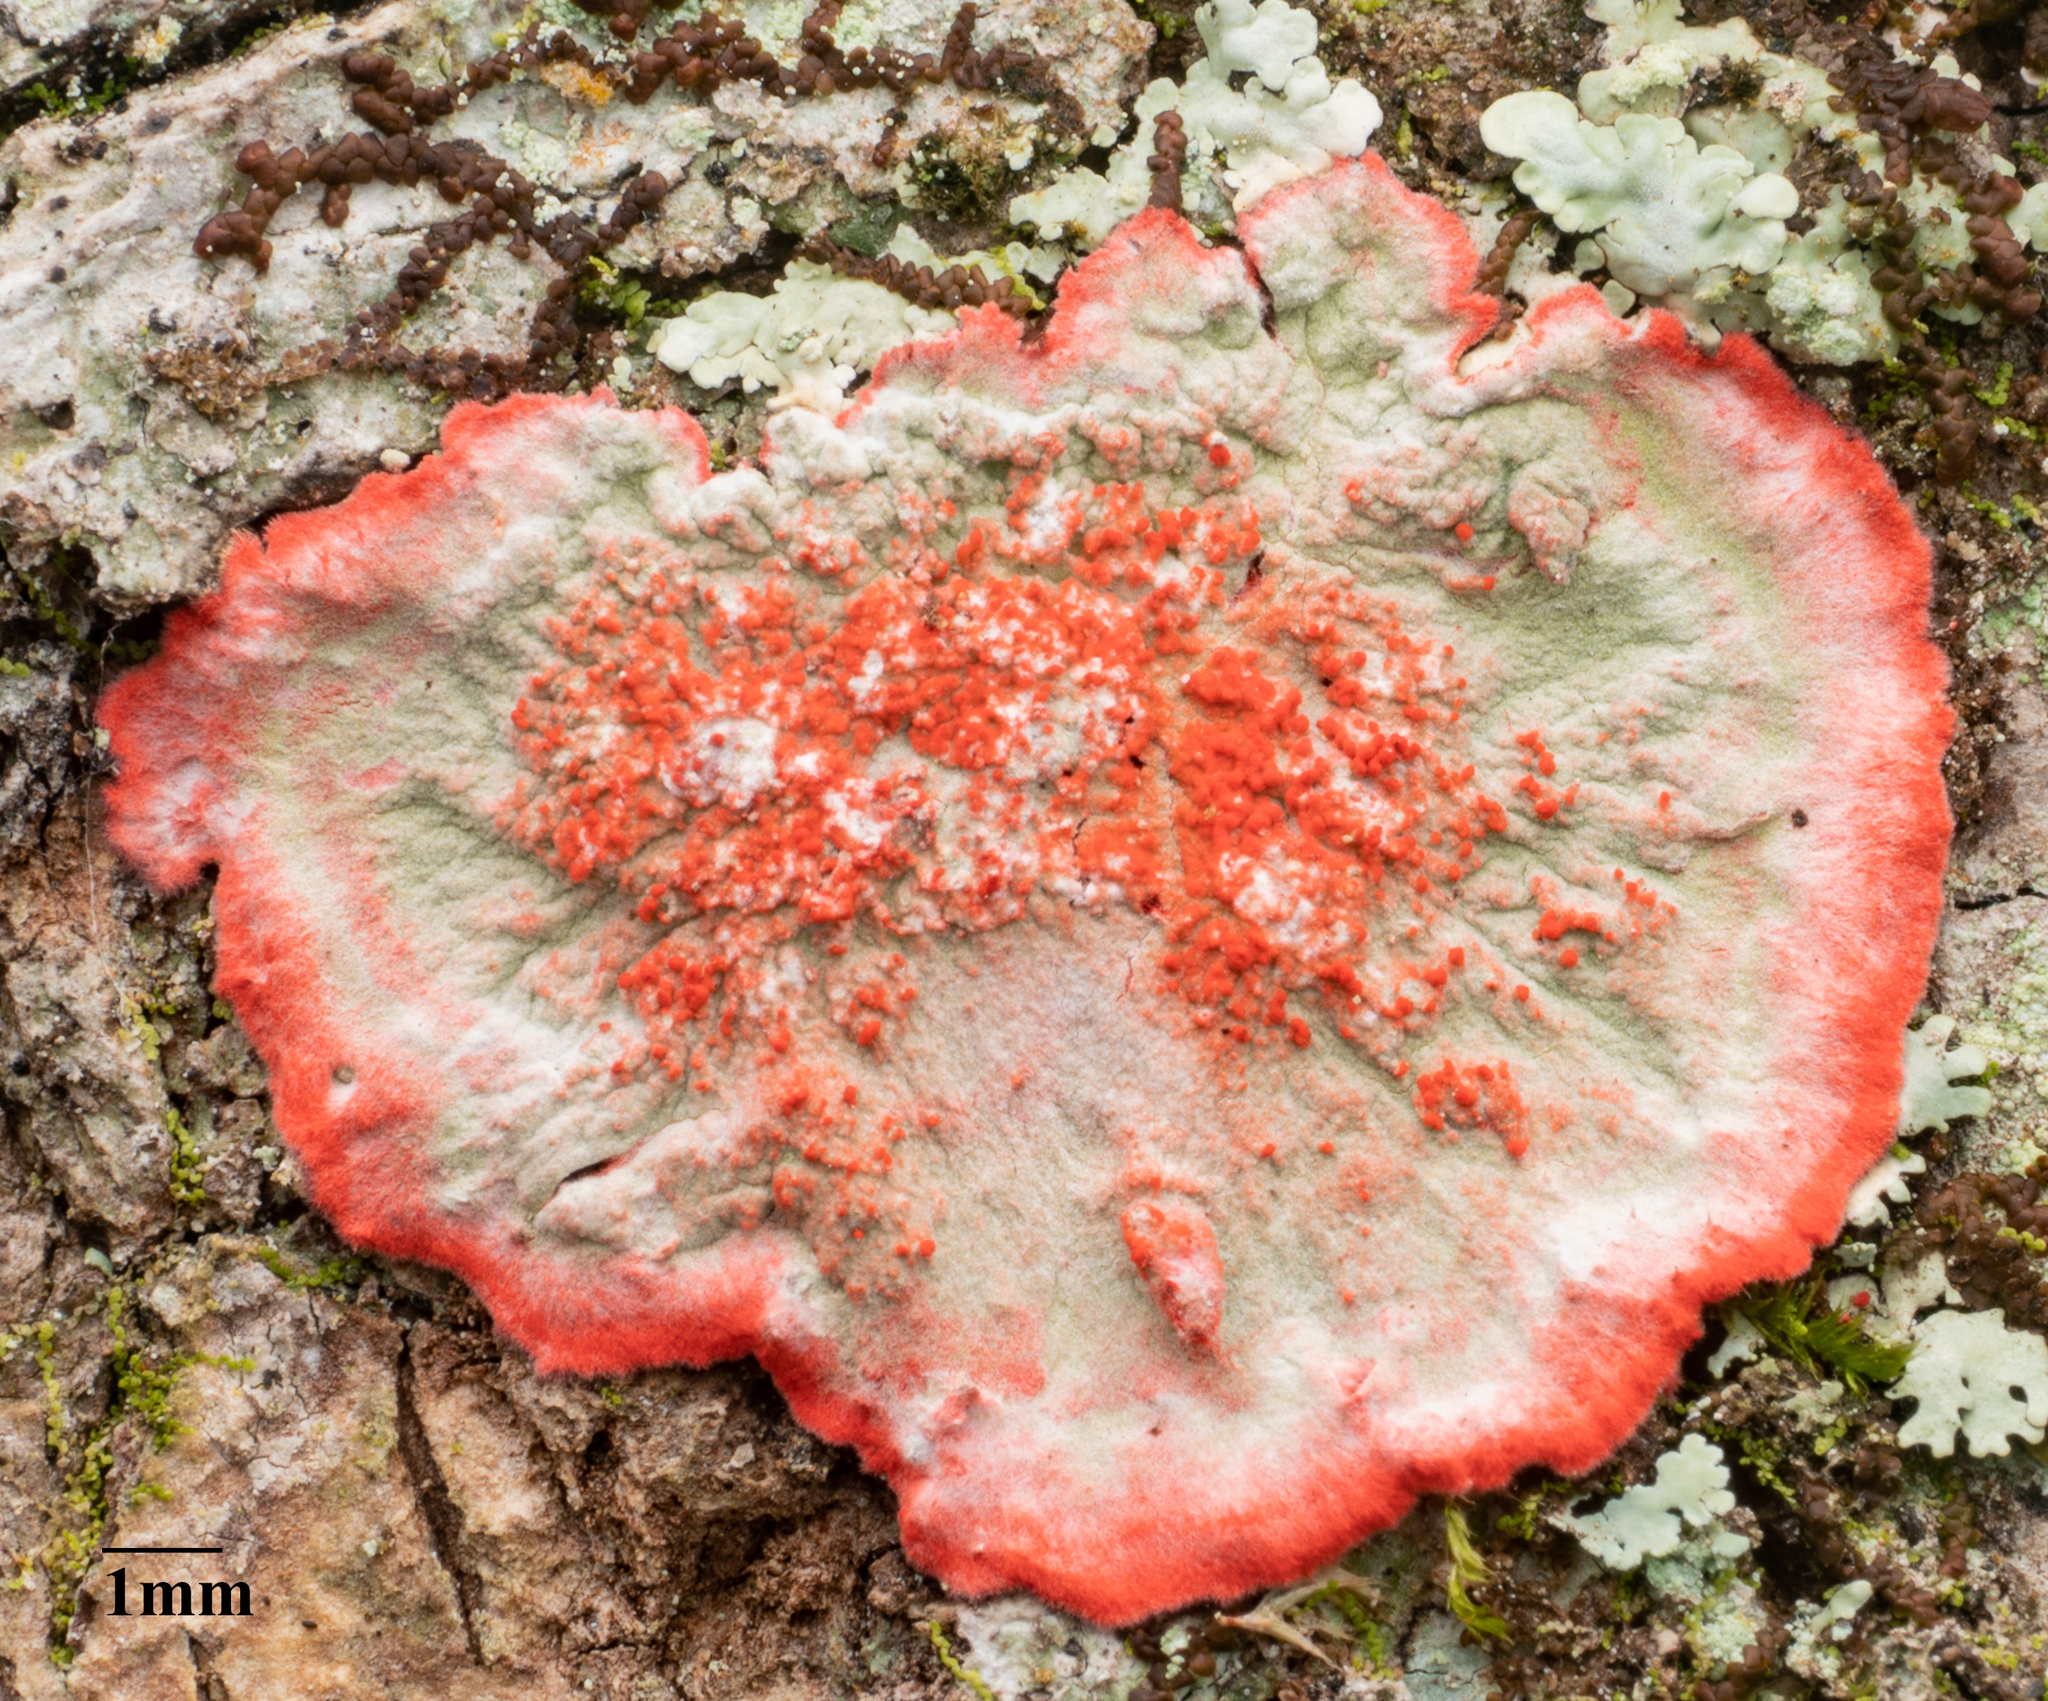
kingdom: Fungi
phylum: Ascomycota
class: Arthoniomycetes
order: Arthoniales
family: Arthoniaceae
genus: Herpothallon
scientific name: Herpothallon rubrocinctum
